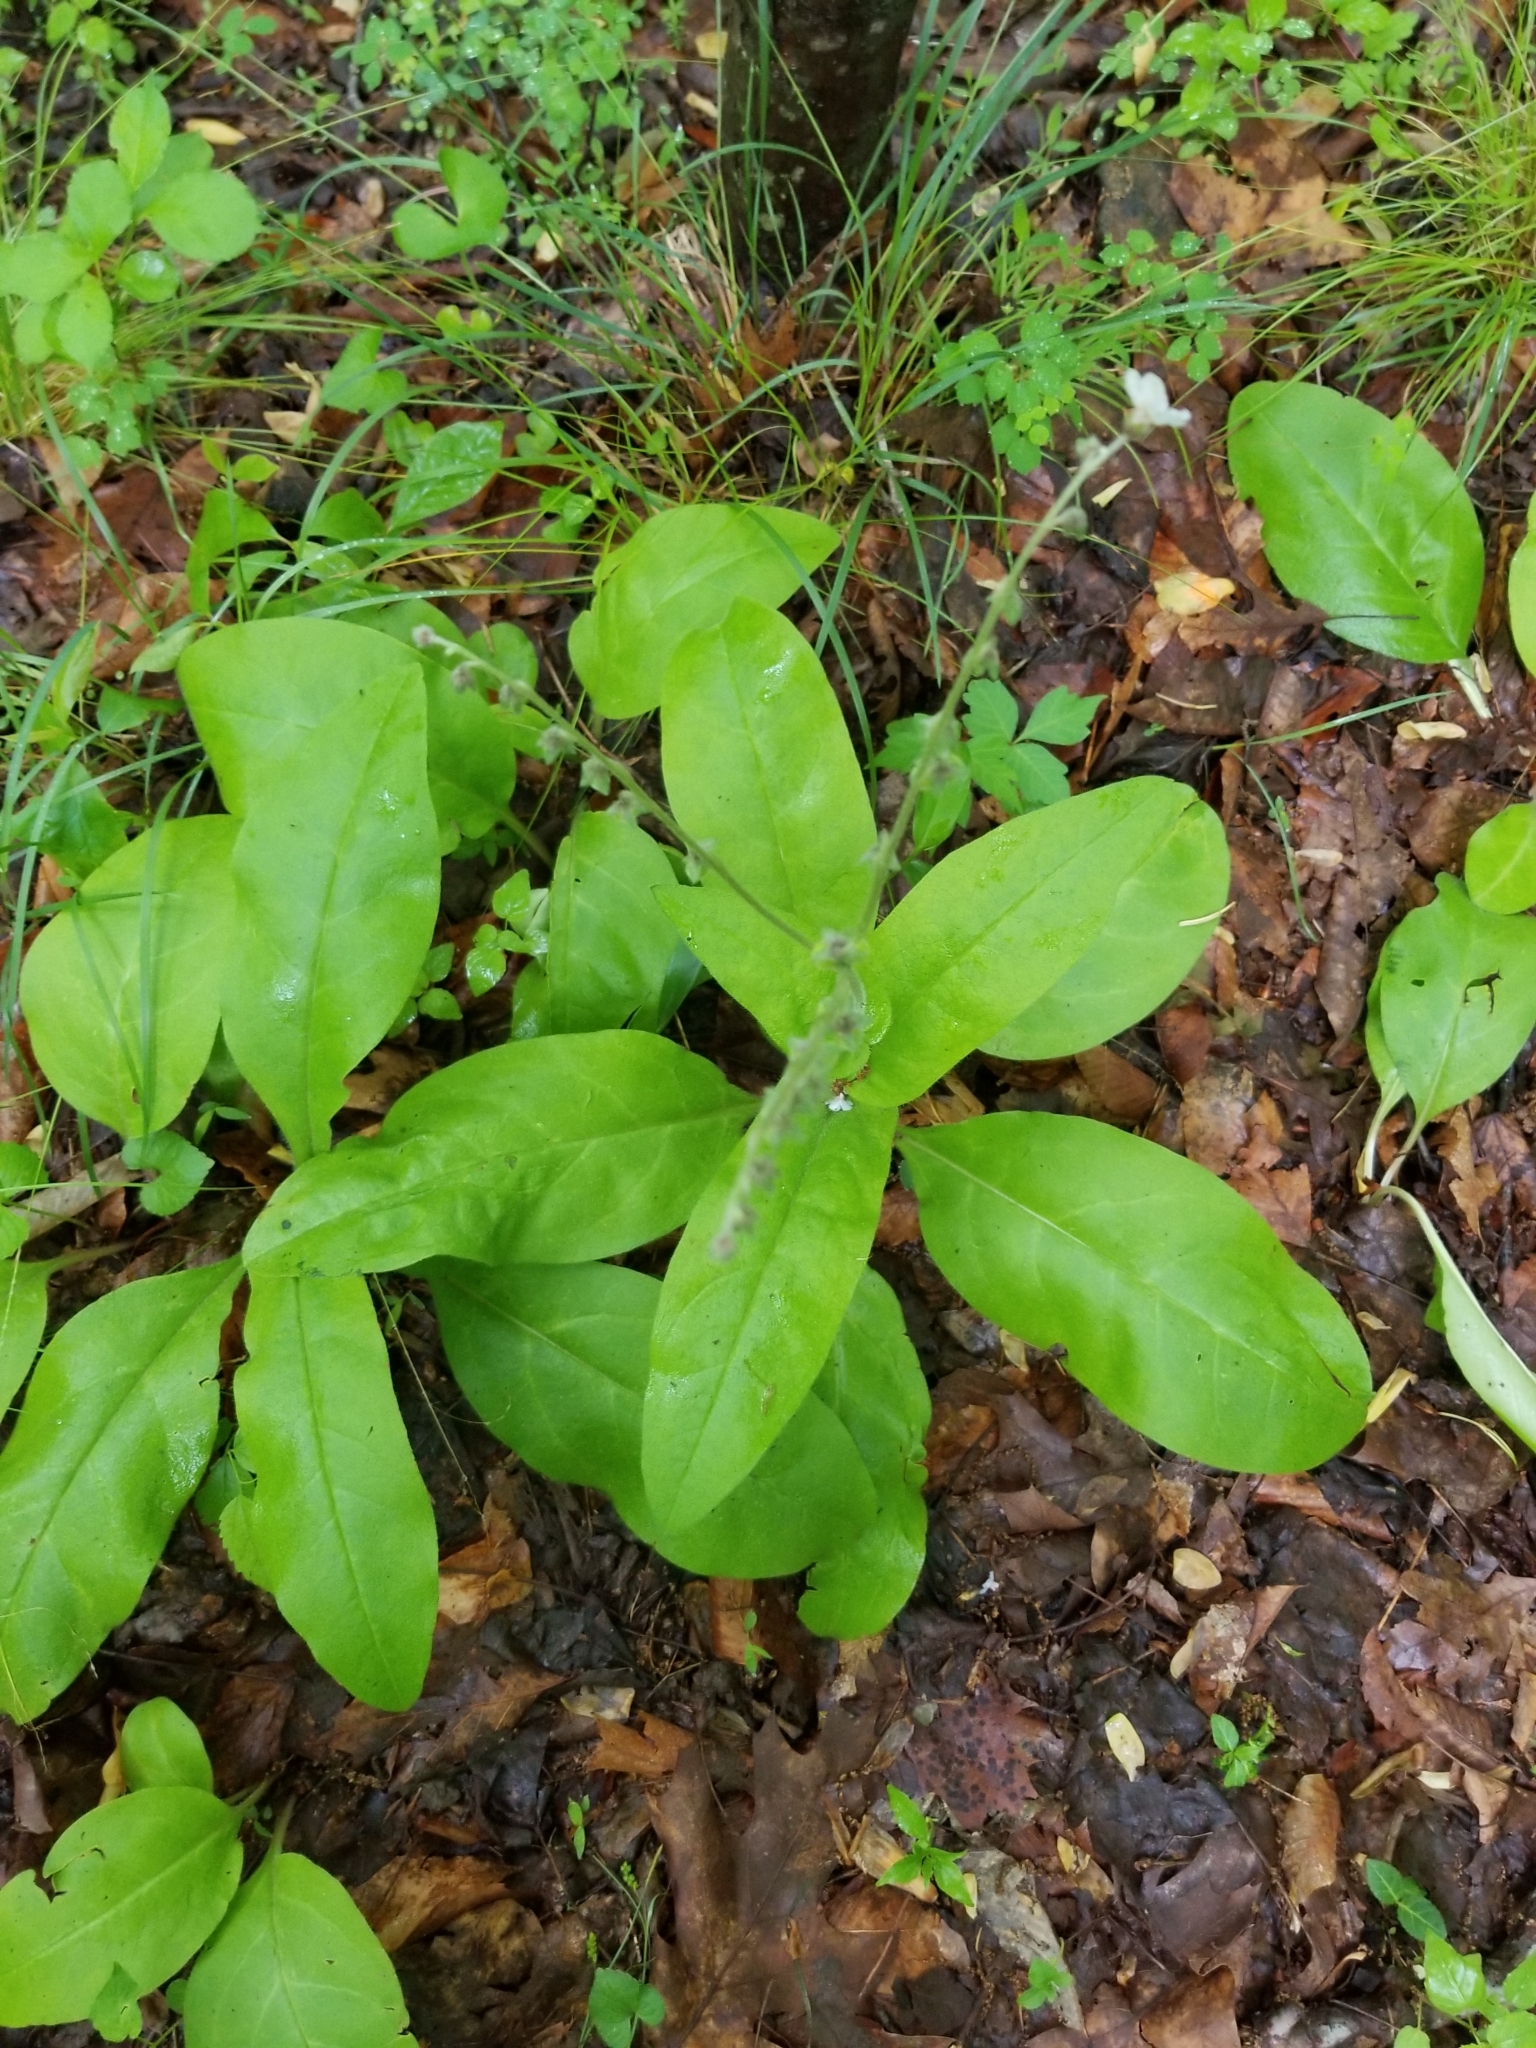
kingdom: Plantae
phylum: Tracheophyta
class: Magnoliopsida
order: Boraginales
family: Boraginaceae
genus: Andersonglossum
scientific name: Andersonglossum virginianum
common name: Wild comfrey
